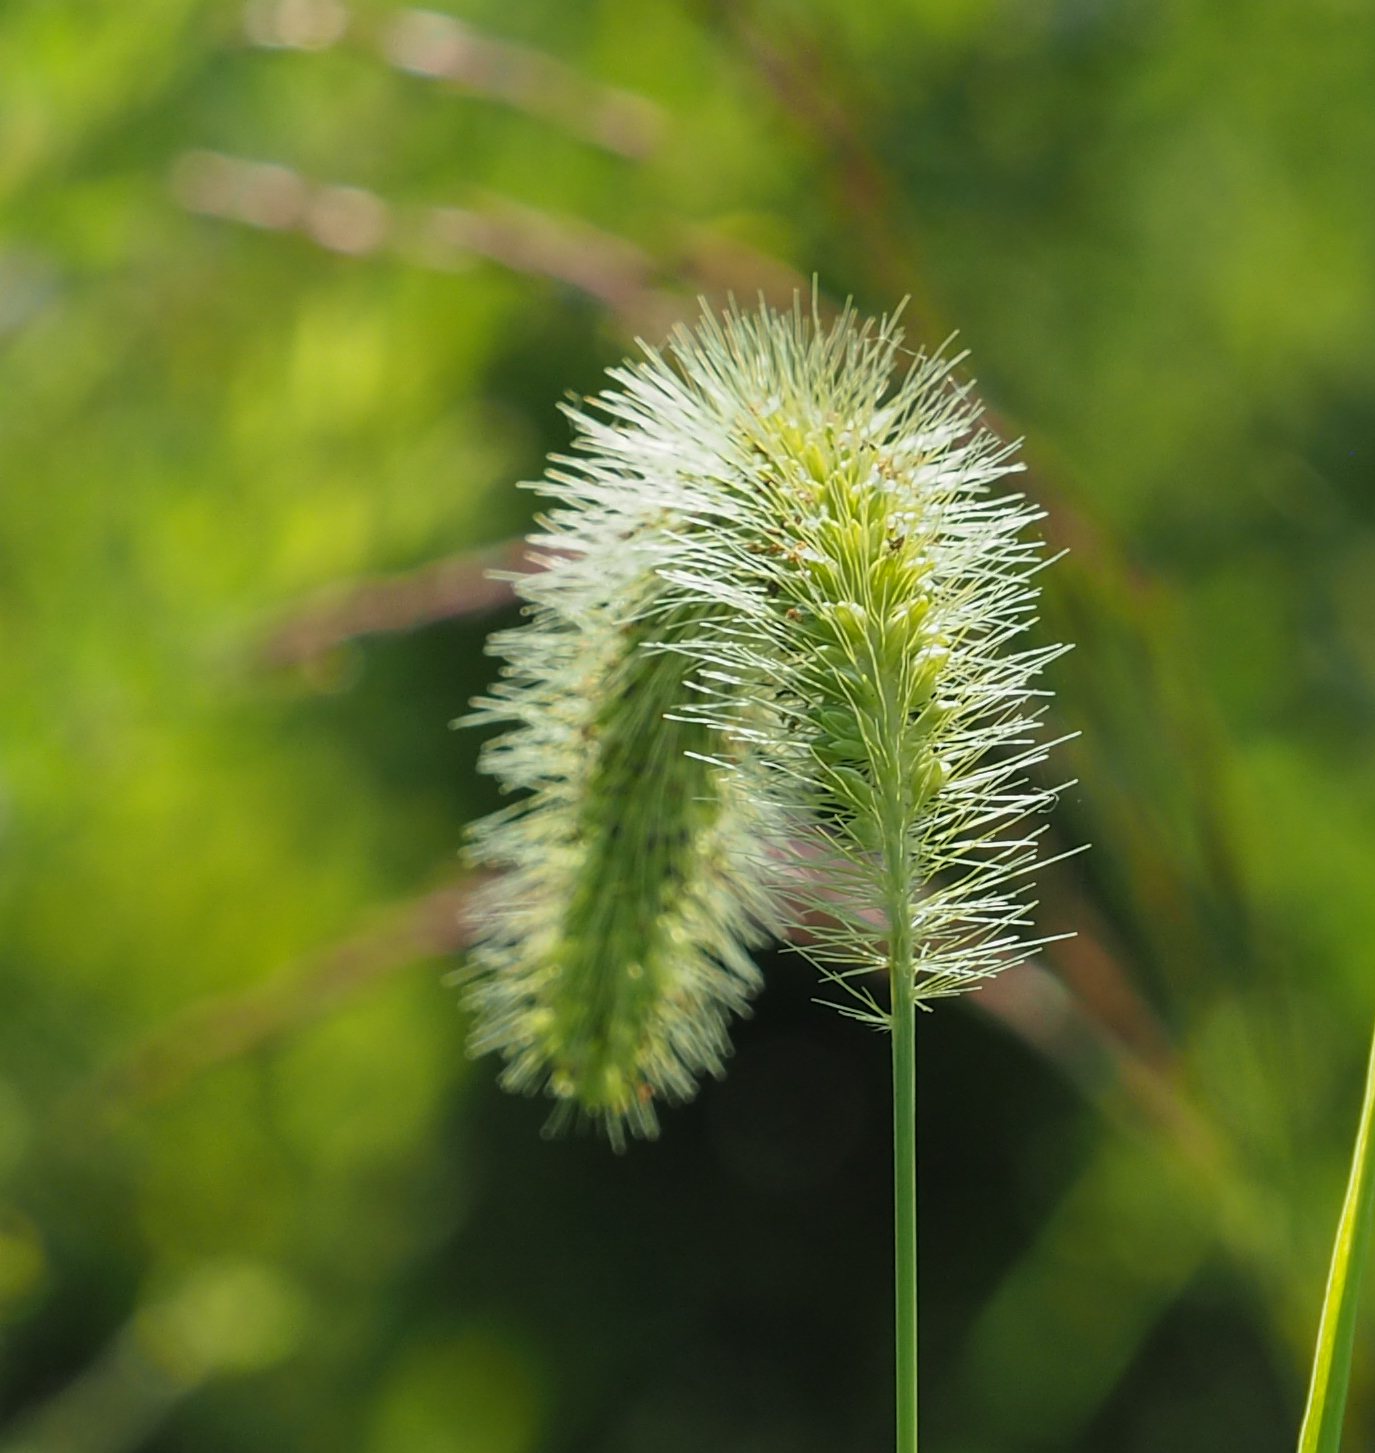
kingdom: Plantae
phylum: Tracheophyta
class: Liliopsida
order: Poales
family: Poaceae
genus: Setaria
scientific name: Setaria faberi
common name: Nodding bristle-grass
